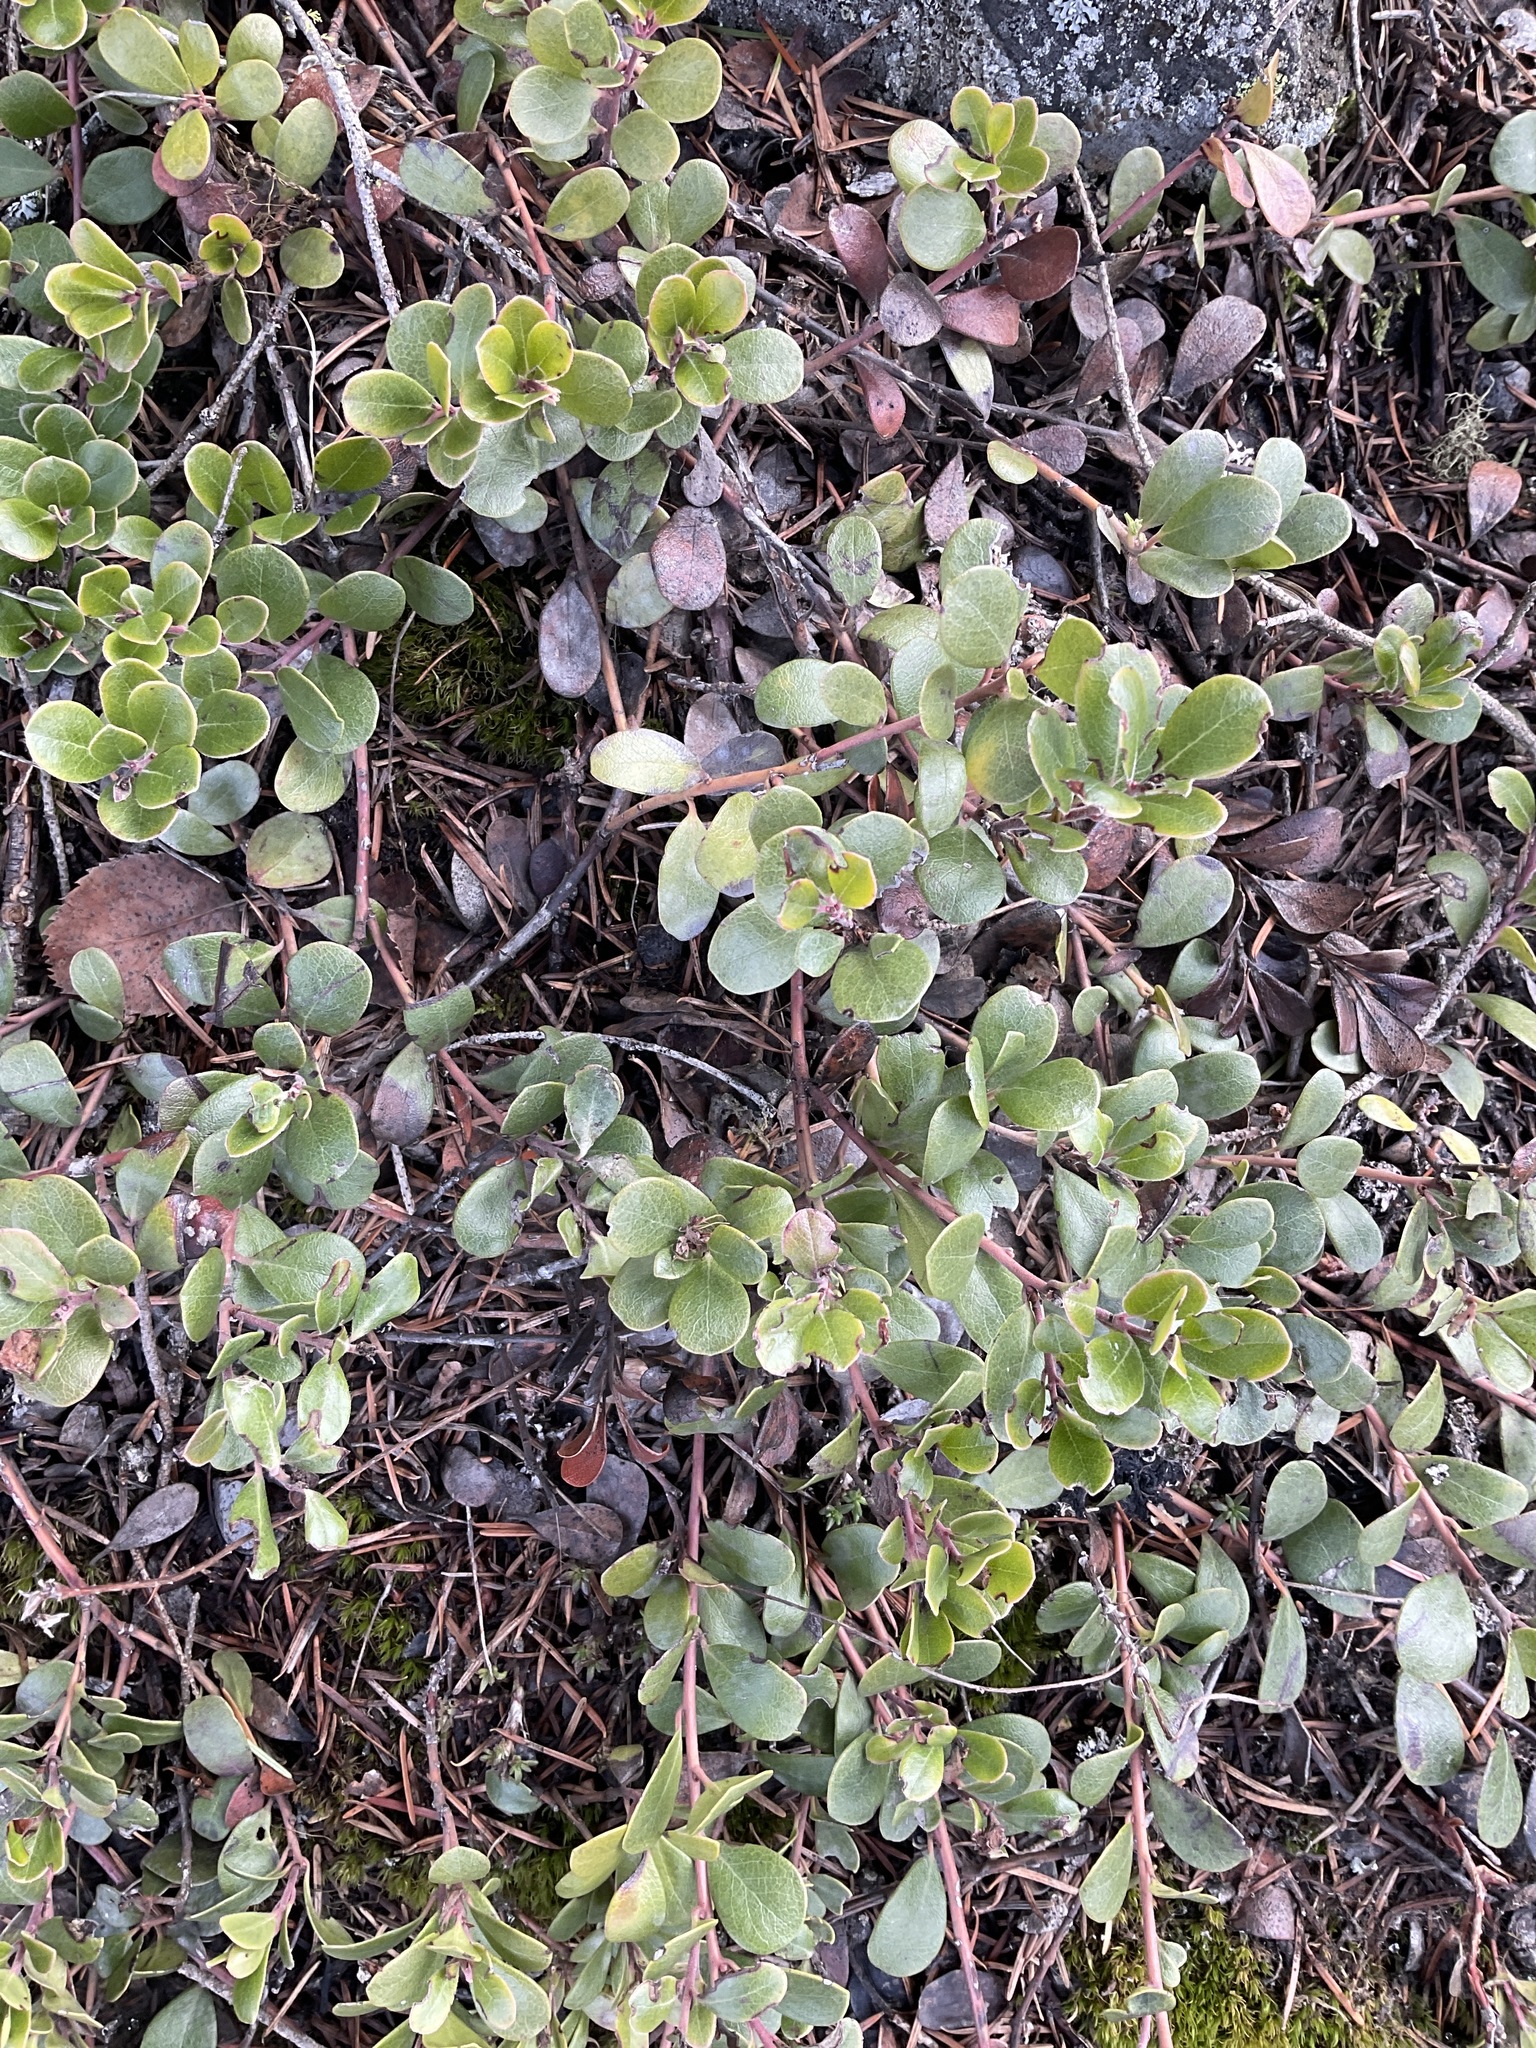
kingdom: Plantae
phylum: Tracheophyta
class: Magnoliopsida
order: Ericales
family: Ericaceae
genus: Arctostaphylos
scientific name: Arctostaphylos uva-ursi
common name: Bearberry
